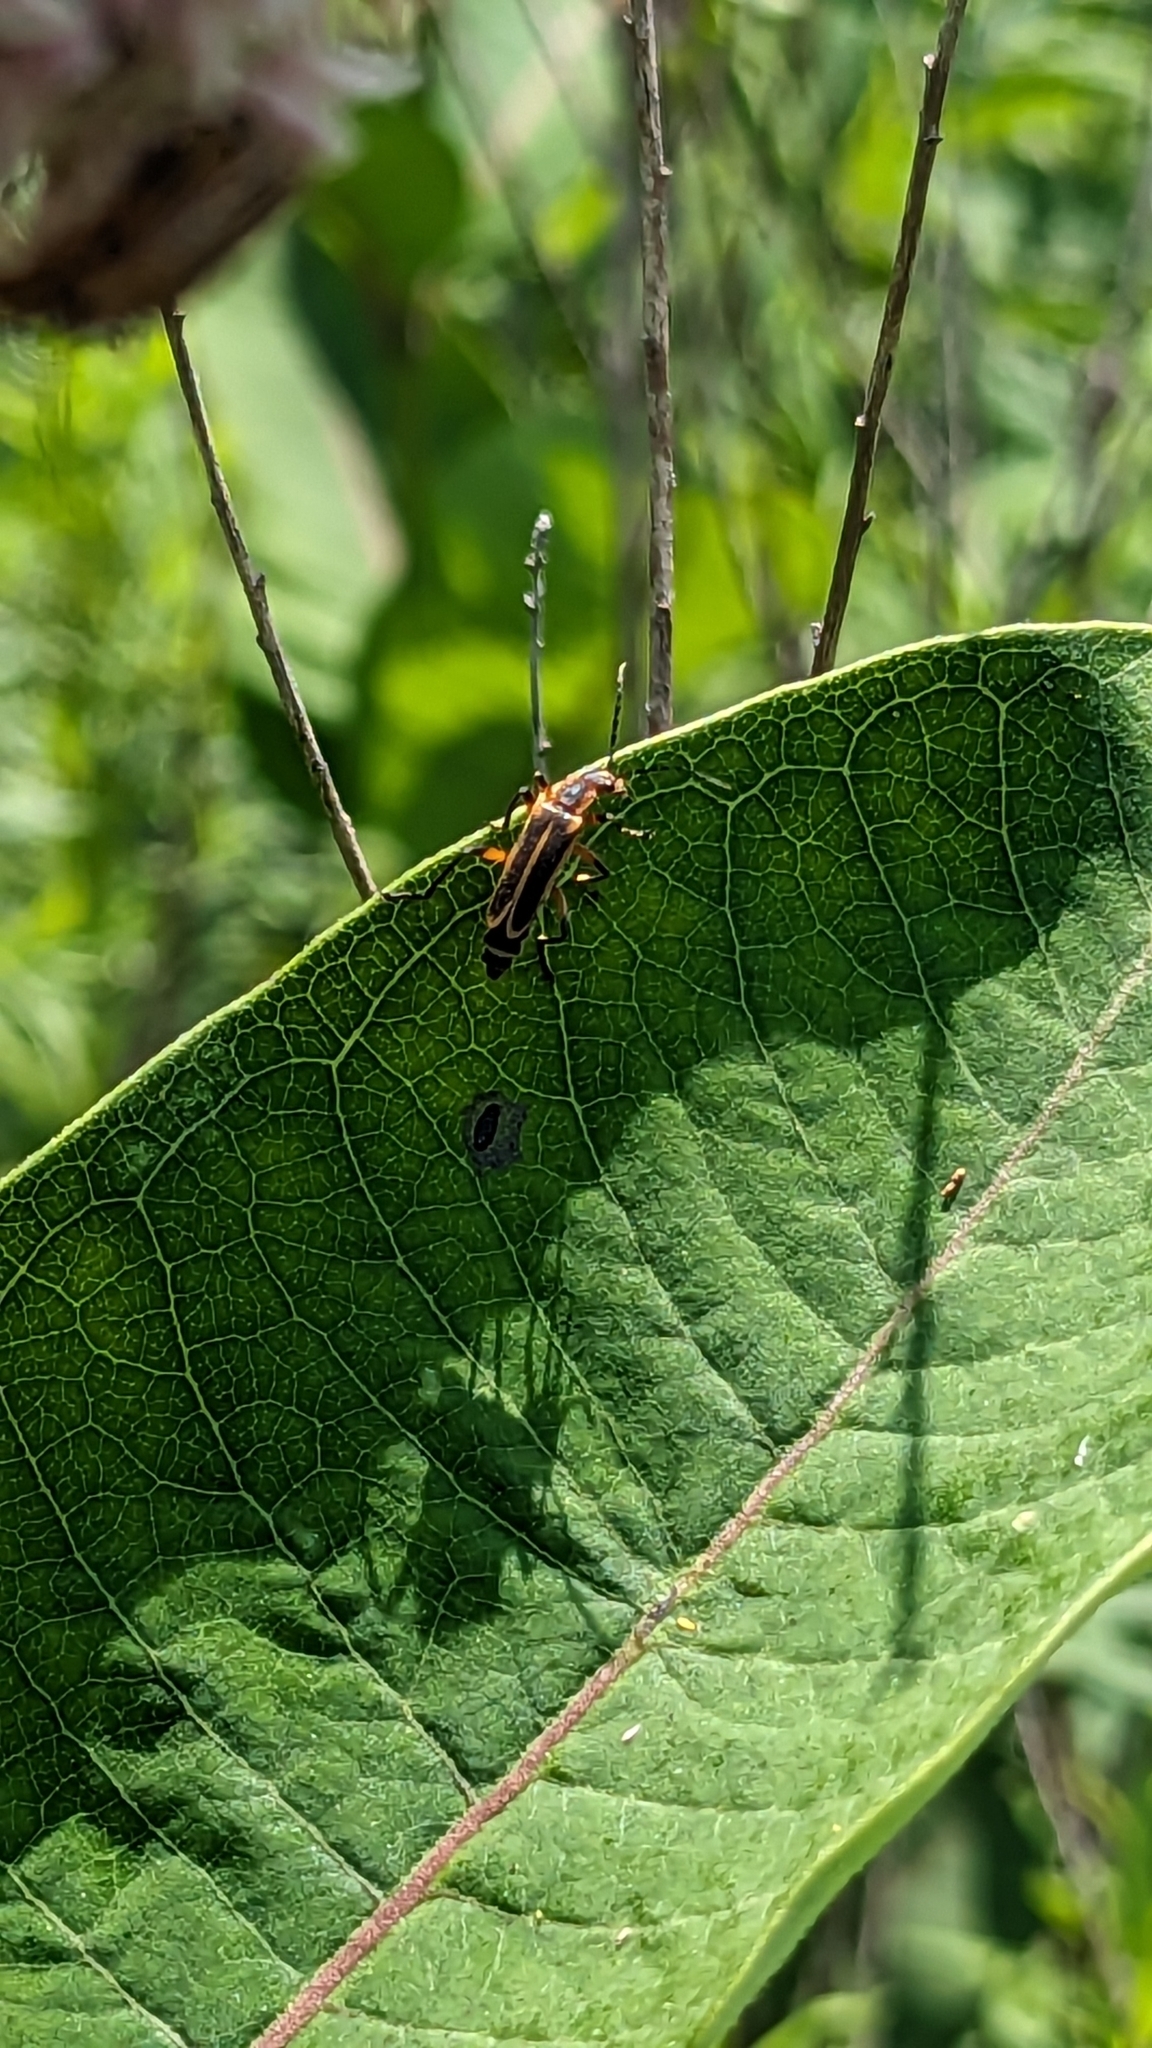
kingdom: Animalia
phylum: Arthropoda
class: Insecta
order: Coleoptera
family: Cantharidae
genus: Chauliognathus
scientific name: Chauliognathus marginatus
